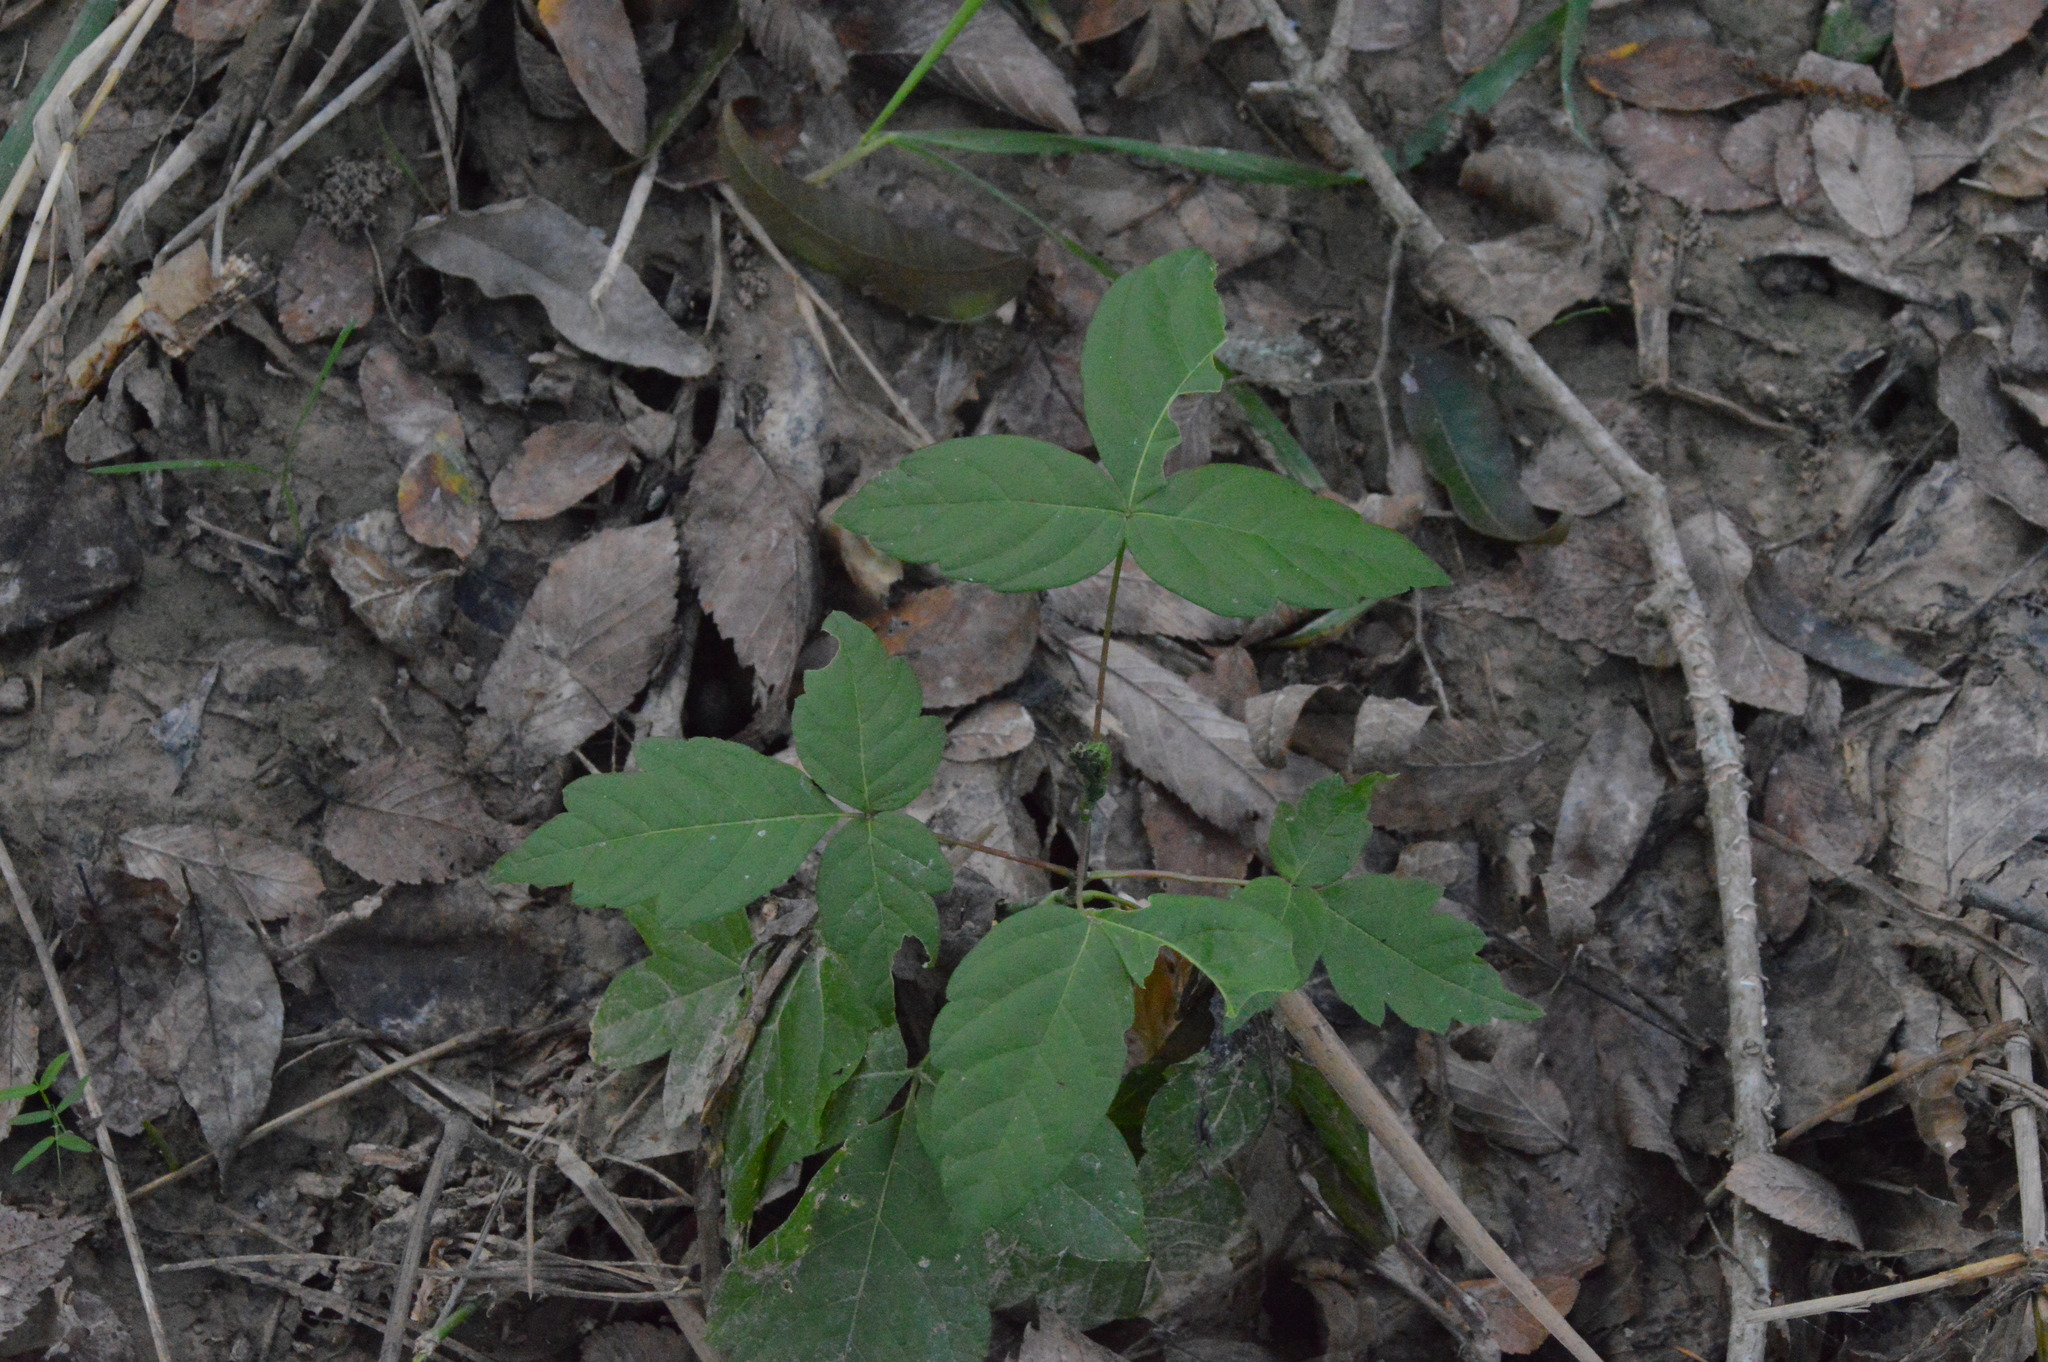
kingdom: Plantae
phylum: Tracheophyta
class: Magnoliopsida
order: Sapindales
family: Sapindaceae
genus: Acer
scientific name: Acer negundo
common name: Ashleaf maple
